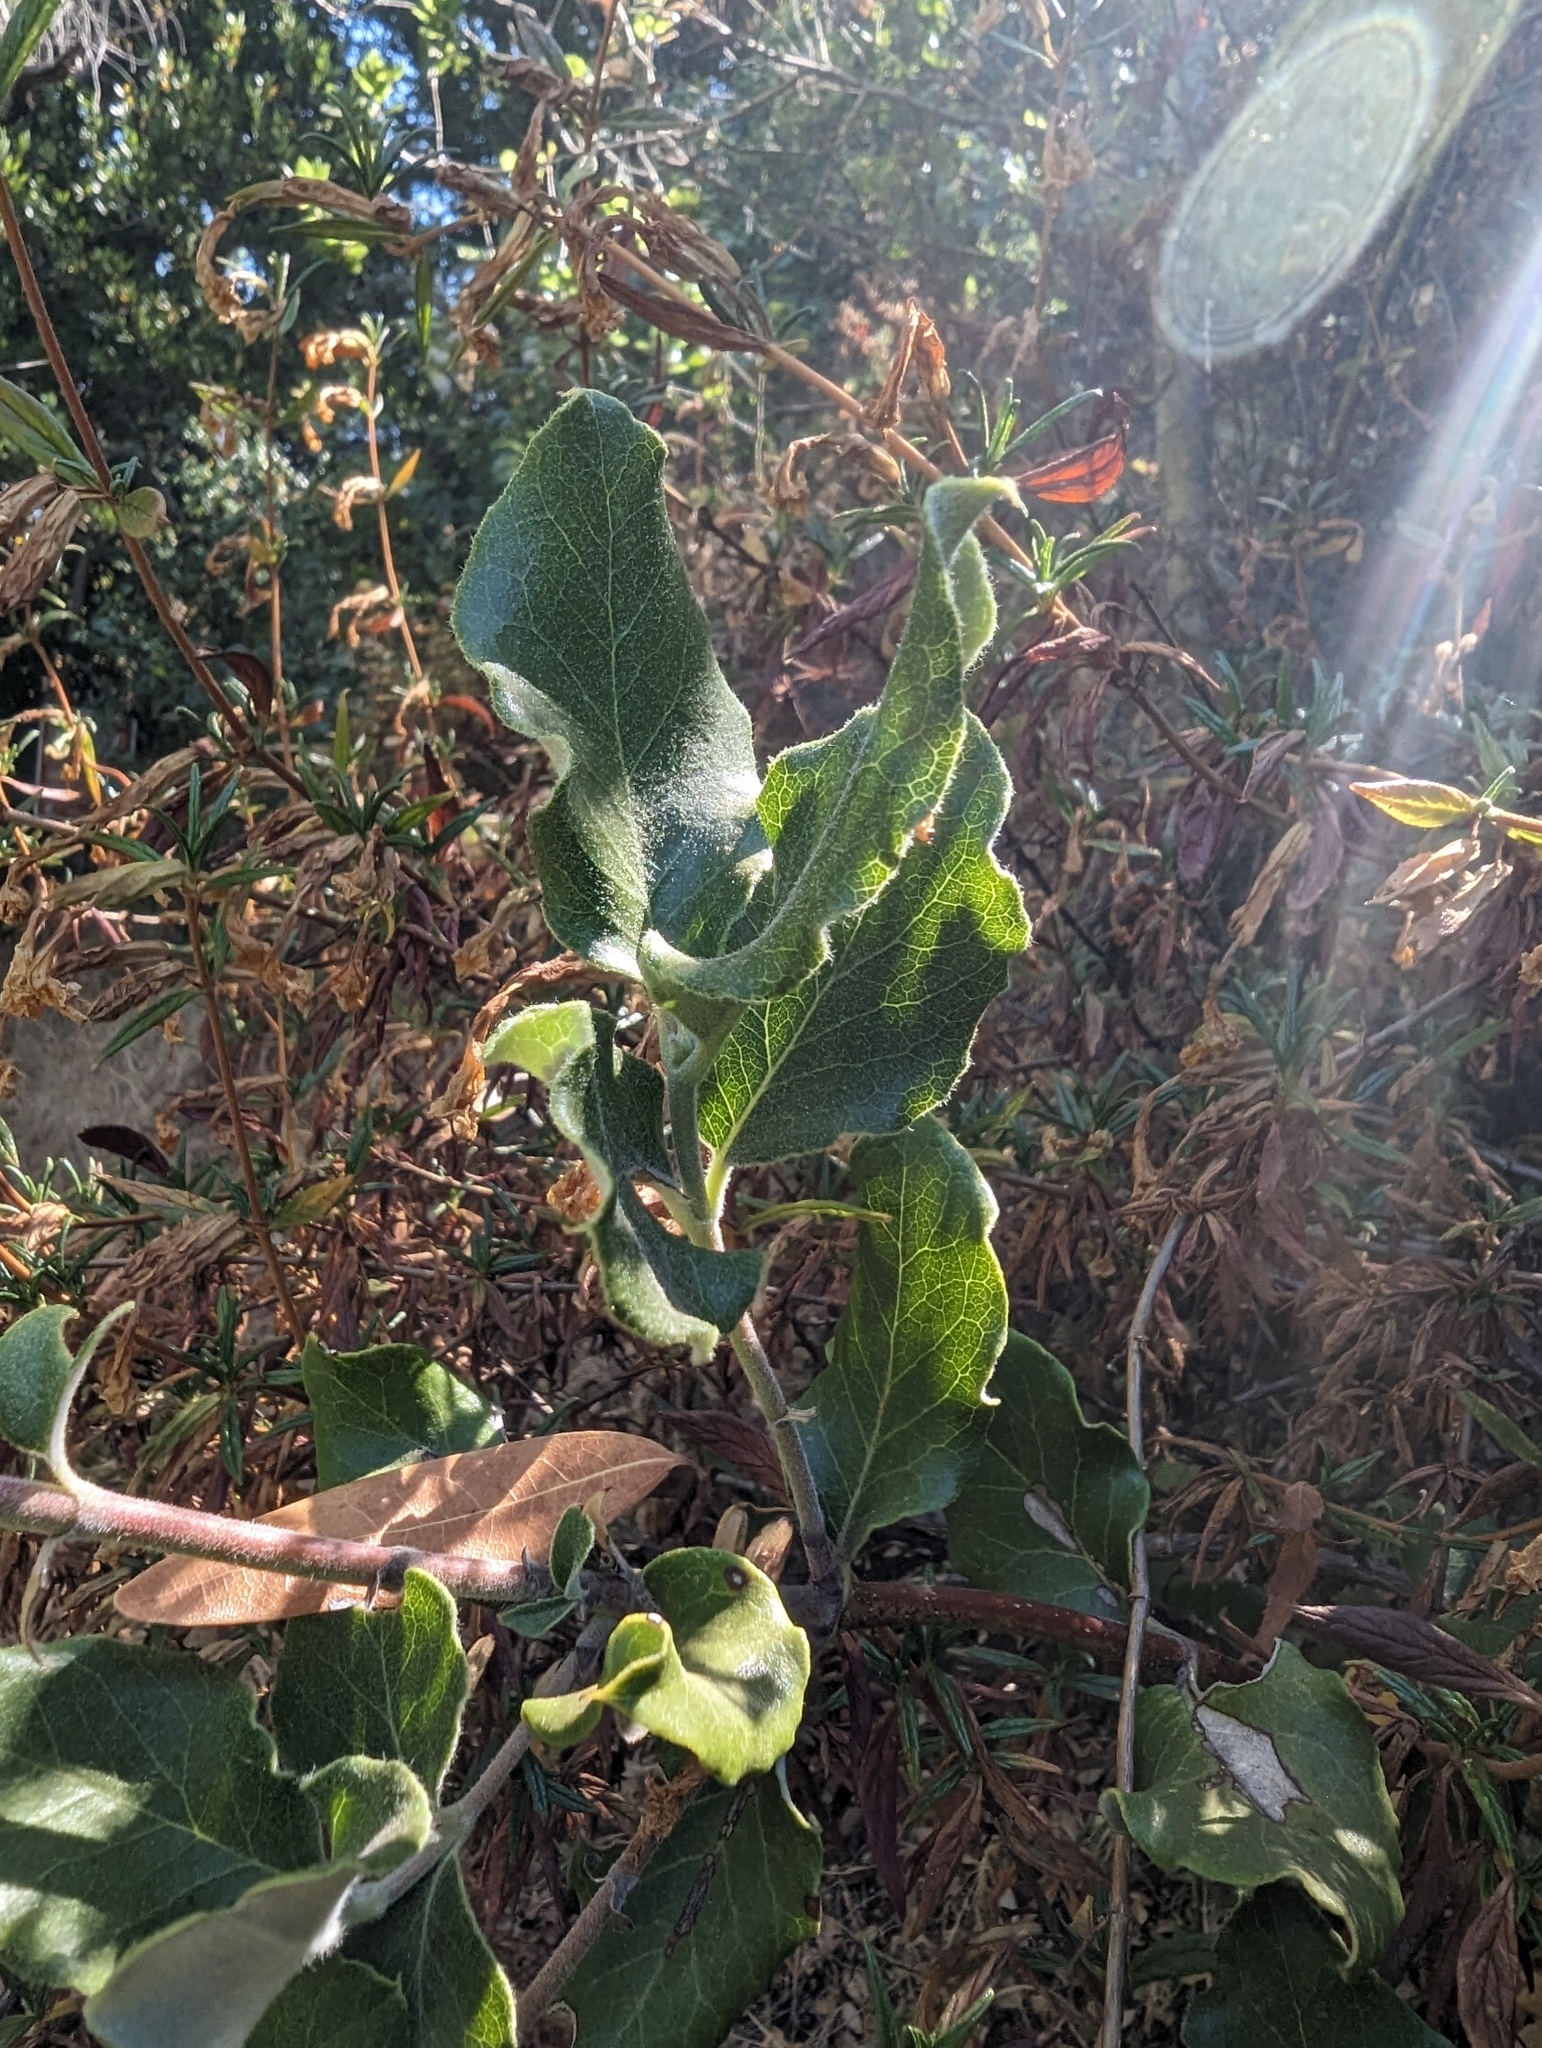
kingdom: Plantae
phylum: Tracheophyta
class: Magnoliopsida
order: Garryales
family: Garryaceae
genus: Garrya
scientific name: Garrya elliptica
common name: Silk-tassel
